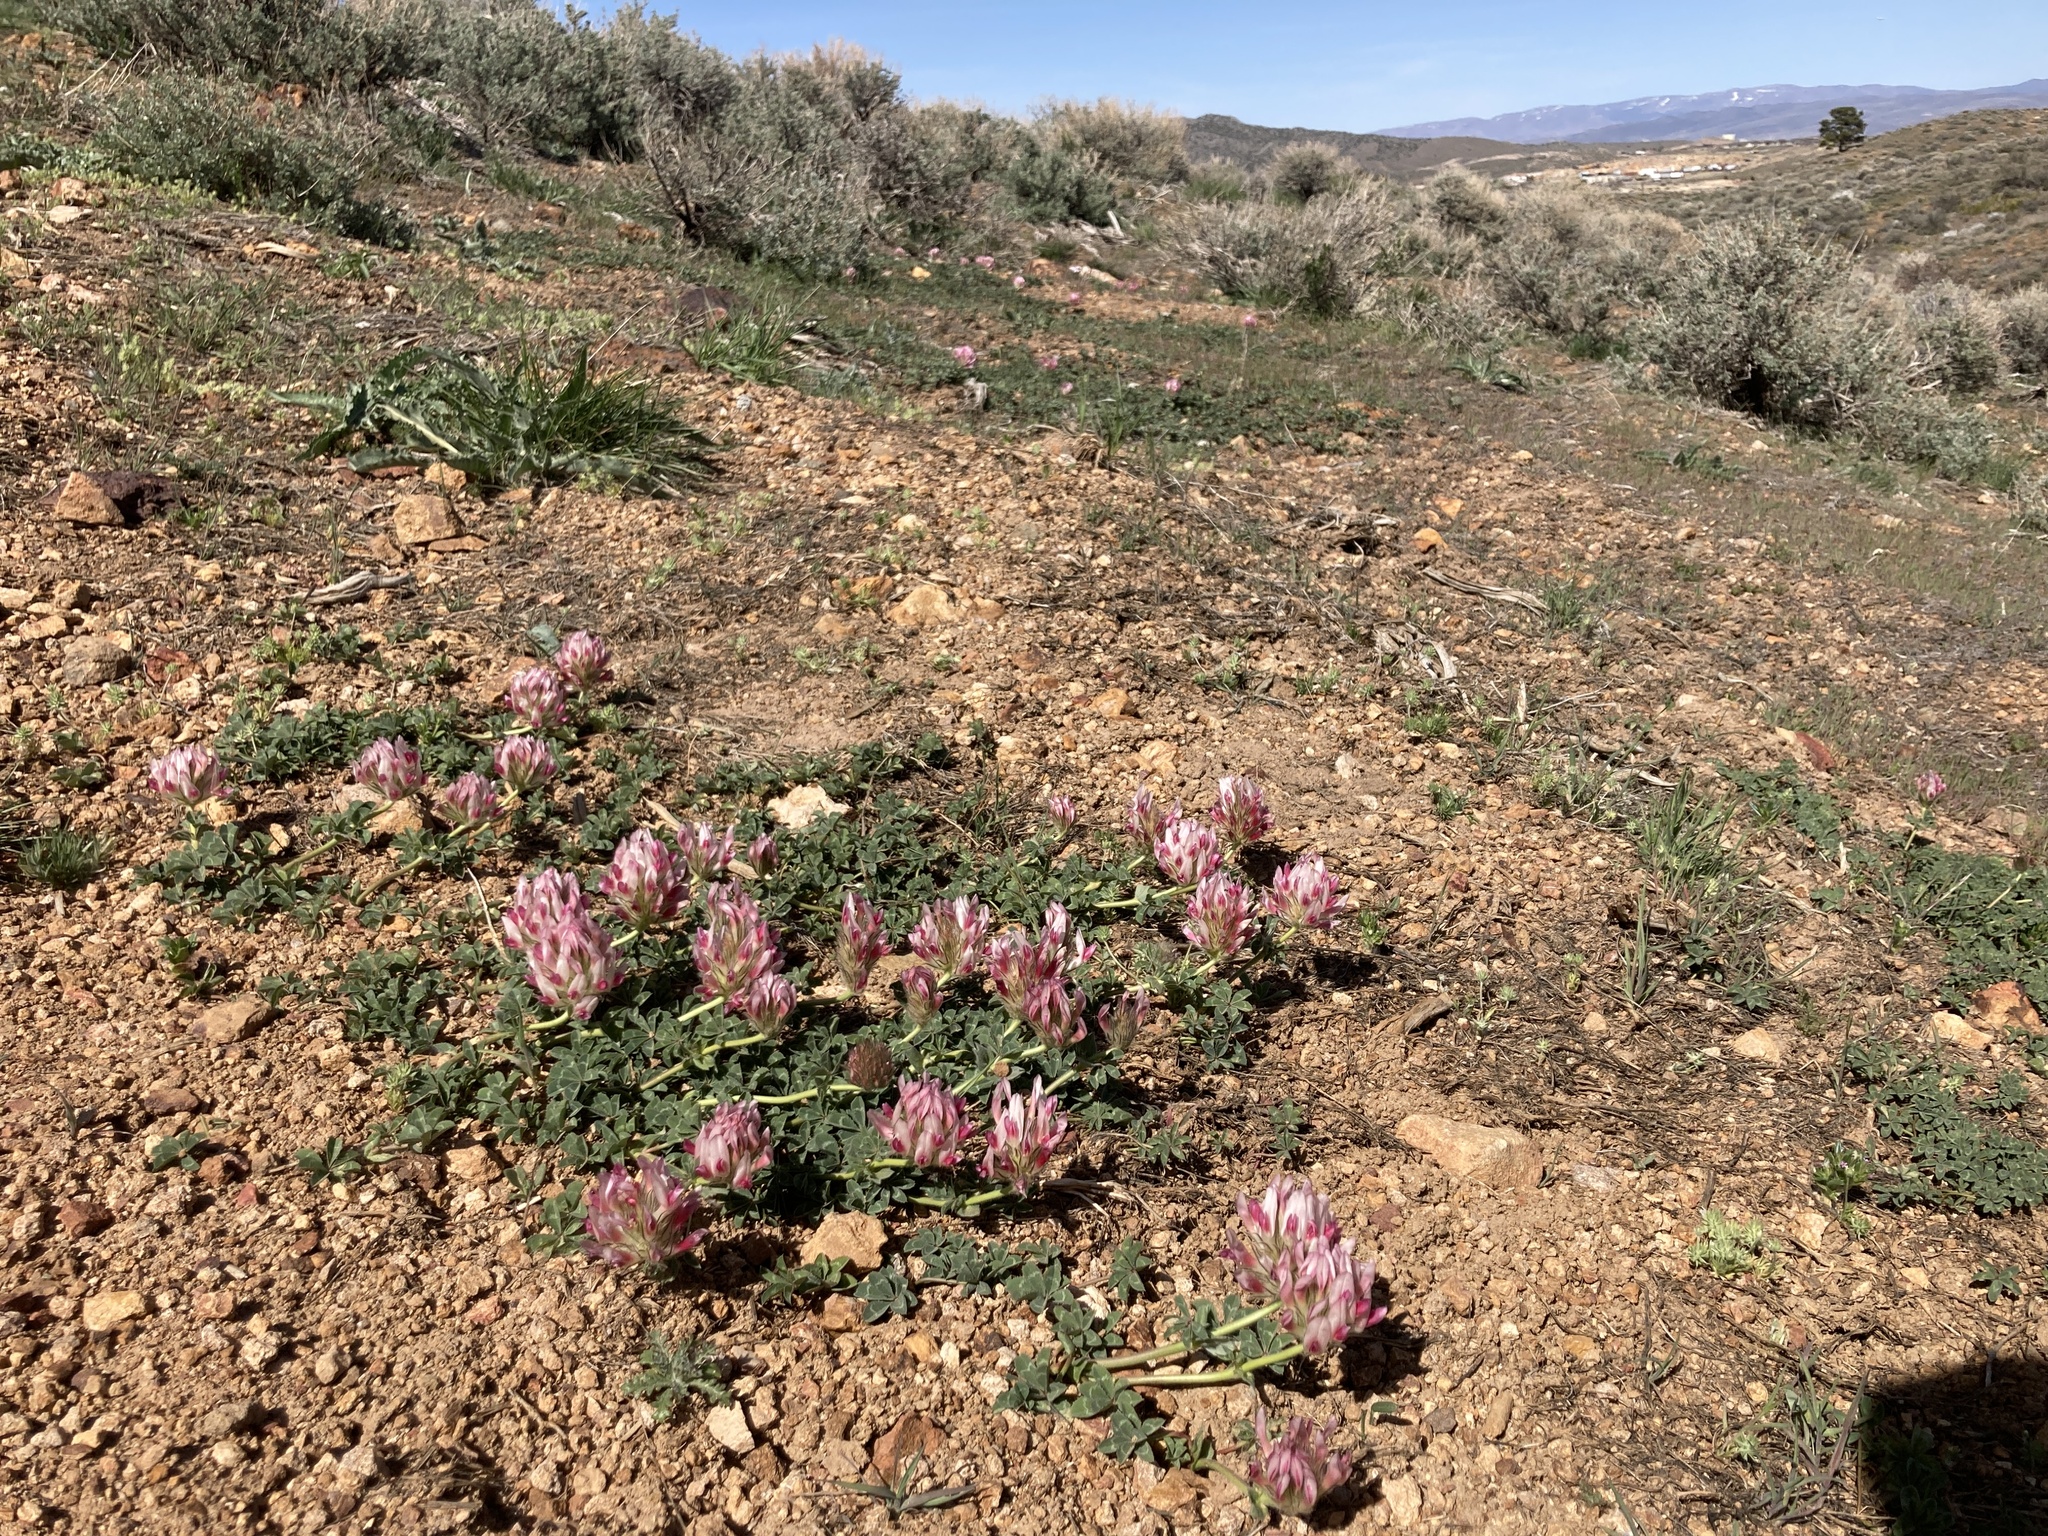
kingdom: Plantae
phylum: Tracheophyta
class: Magnoliopsida
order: Fabales
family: Fabaceae
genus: Trifolium
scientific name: Trifolium macrocephalum
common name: Large-head clover
